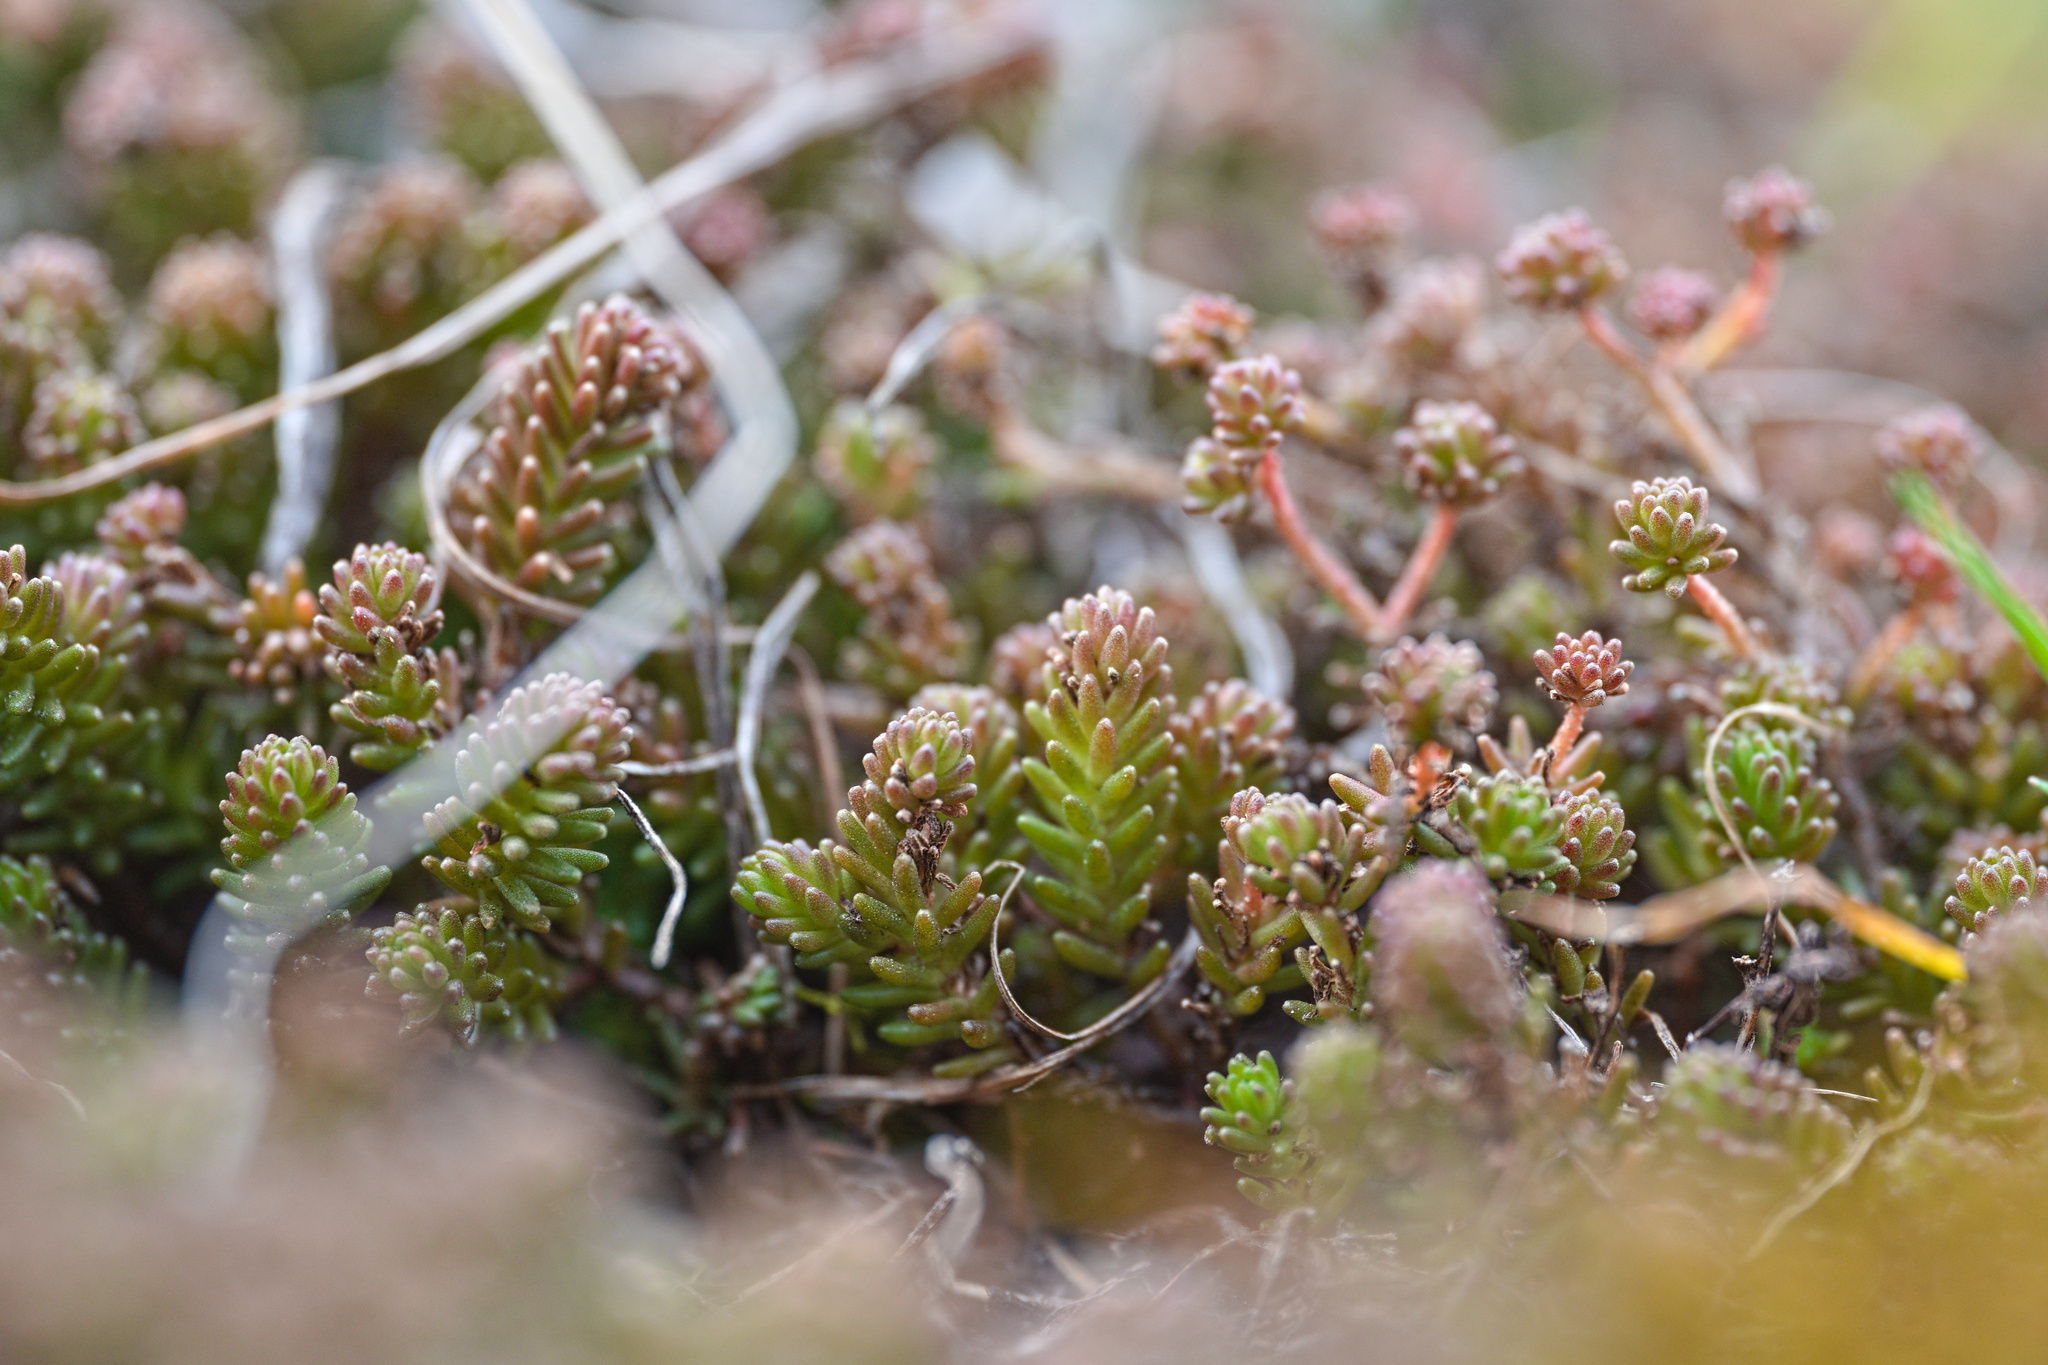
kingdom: Plantae
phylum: Tracheophyta
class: Magnoliopsida
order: Saxifragales
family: Crassulaceae
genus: Sedum
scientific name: Sedum sexangulare
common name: Tasteless stonecrop
